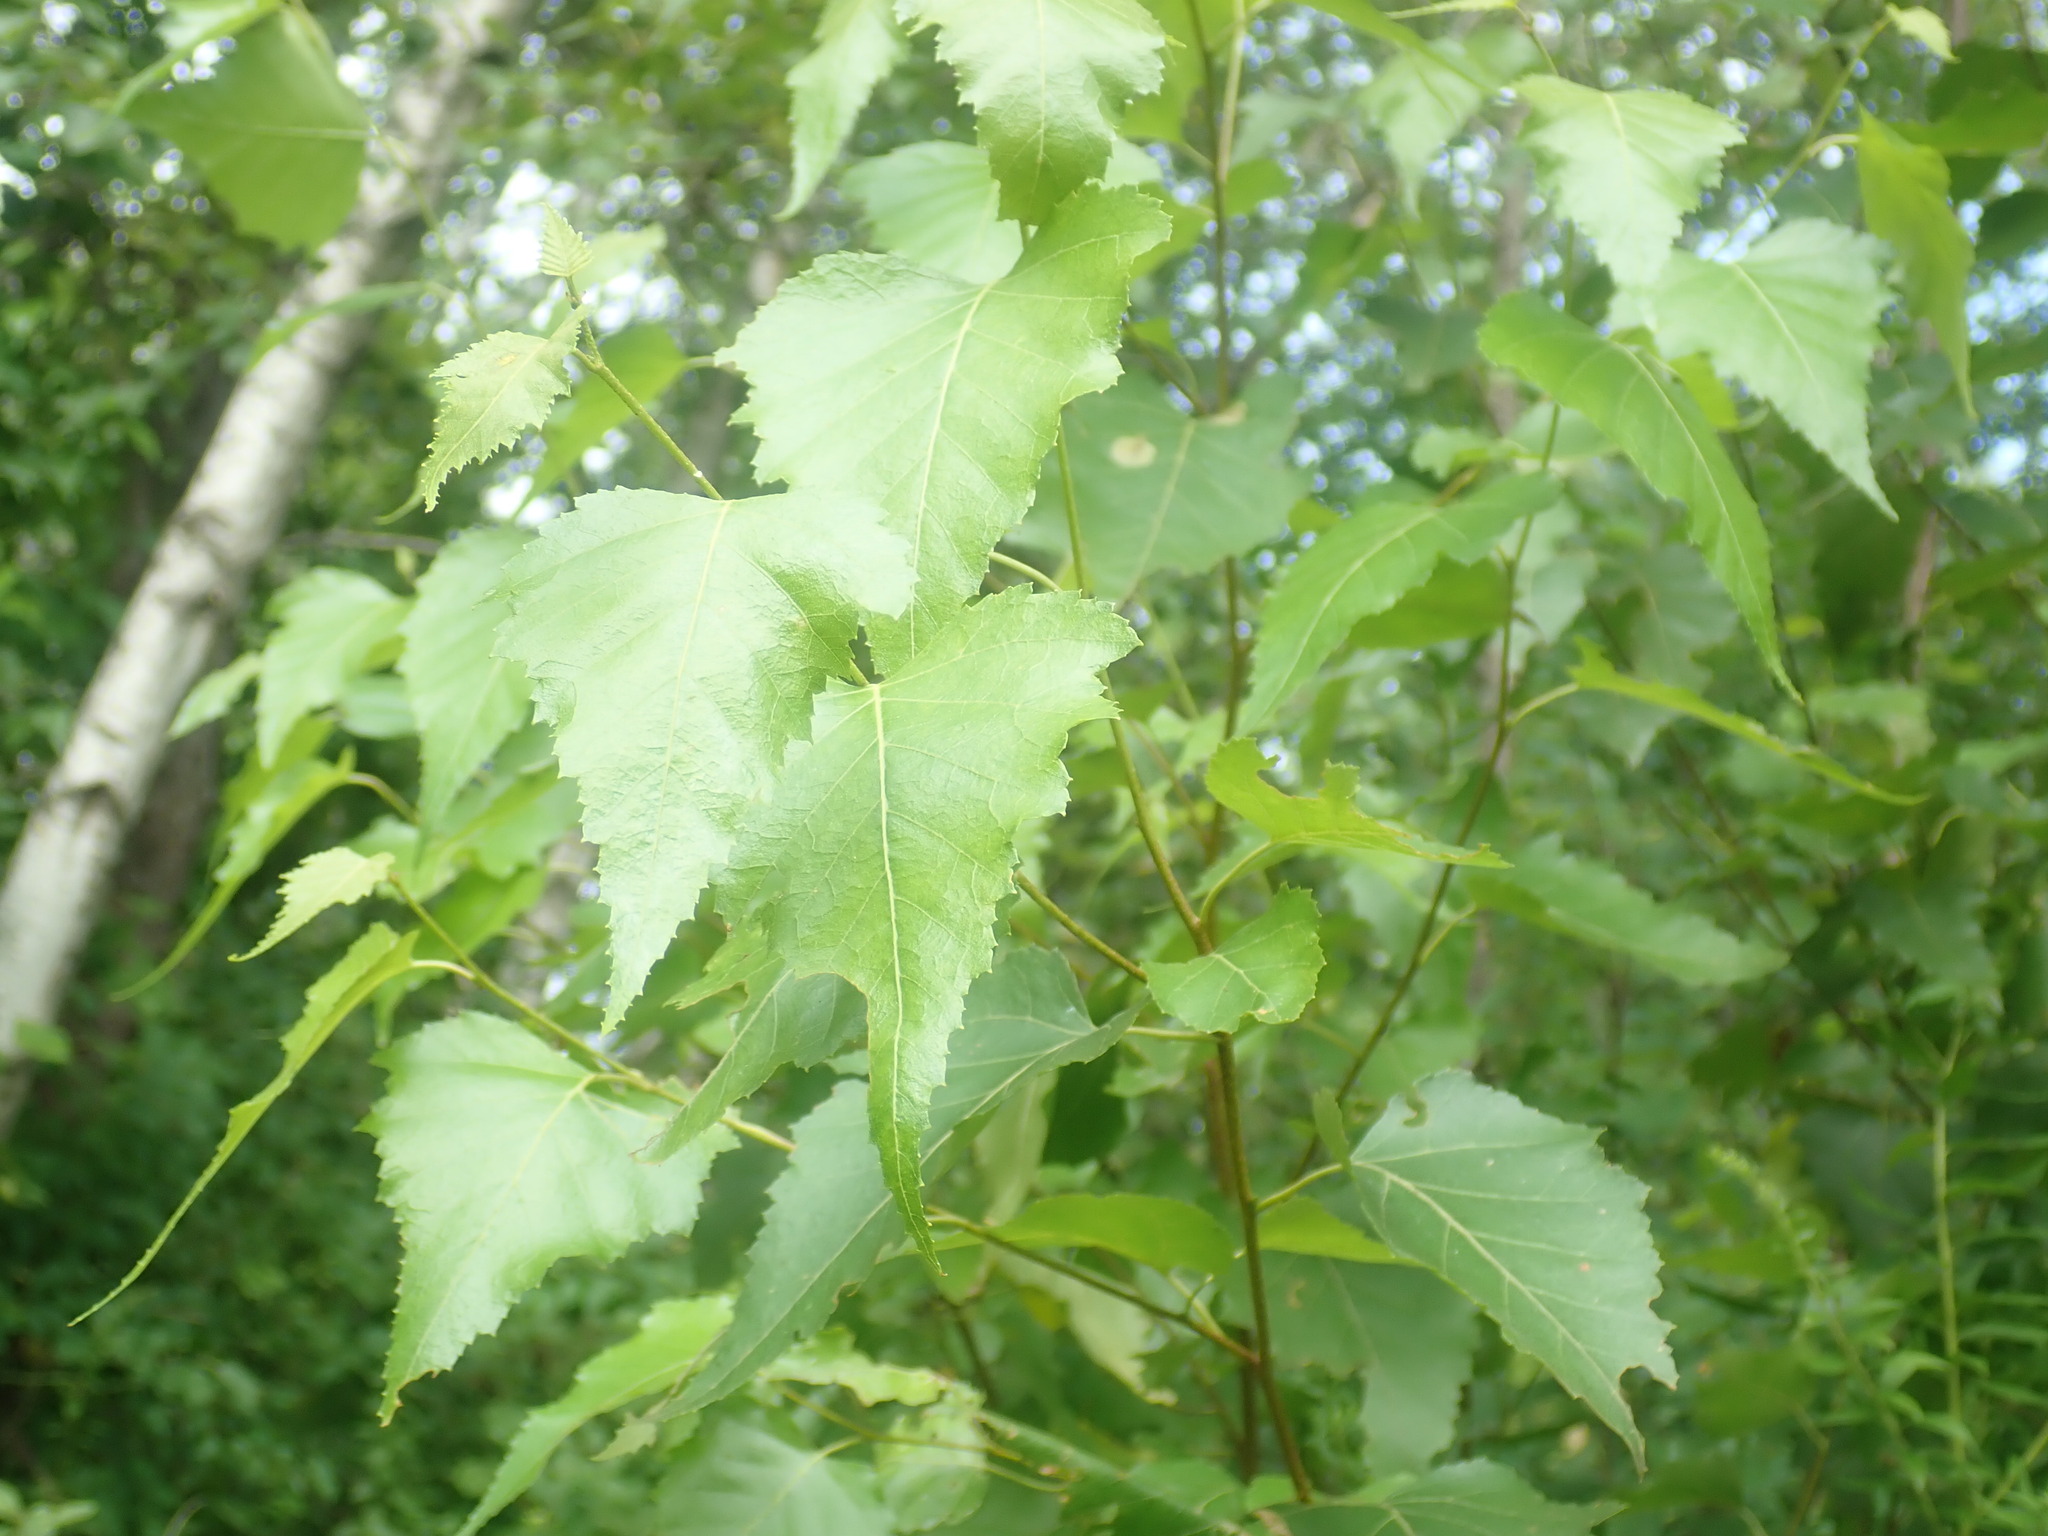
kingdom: Plantae
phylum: Tracheophyta
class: Magnoliopsida
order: Fagales
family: Betulaceae
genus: Betula
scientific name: Betula populifolia
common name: Fire birch
